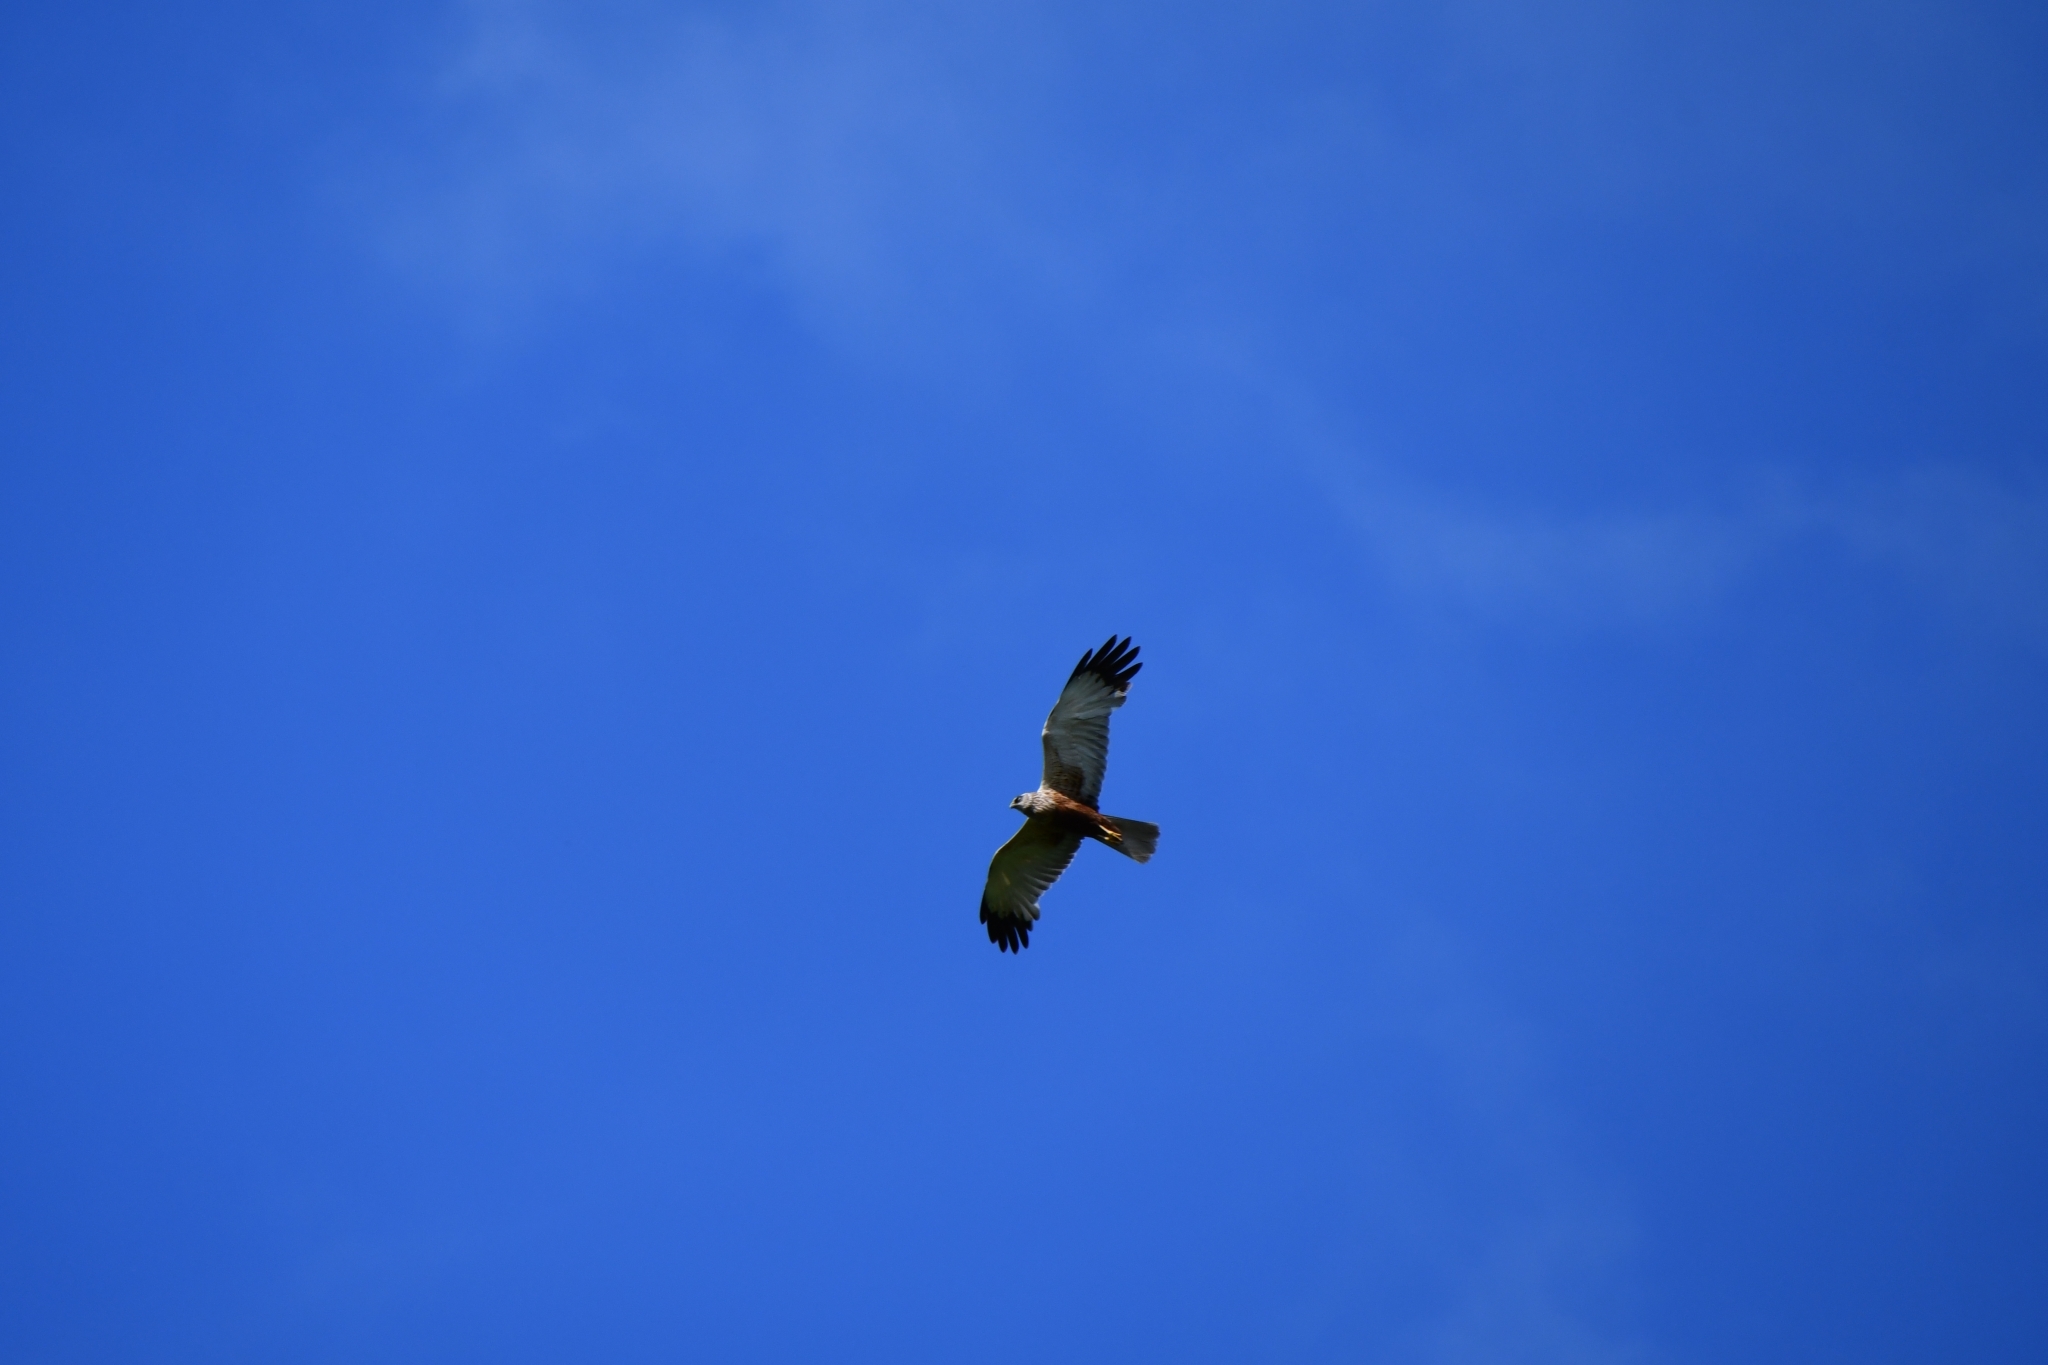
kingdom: Animalia
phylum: Chordata
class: Aves
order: Accipitriformes
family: Accipitridae
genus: Circus
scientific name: Circus aeruginosus
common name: Western marsh harrier
